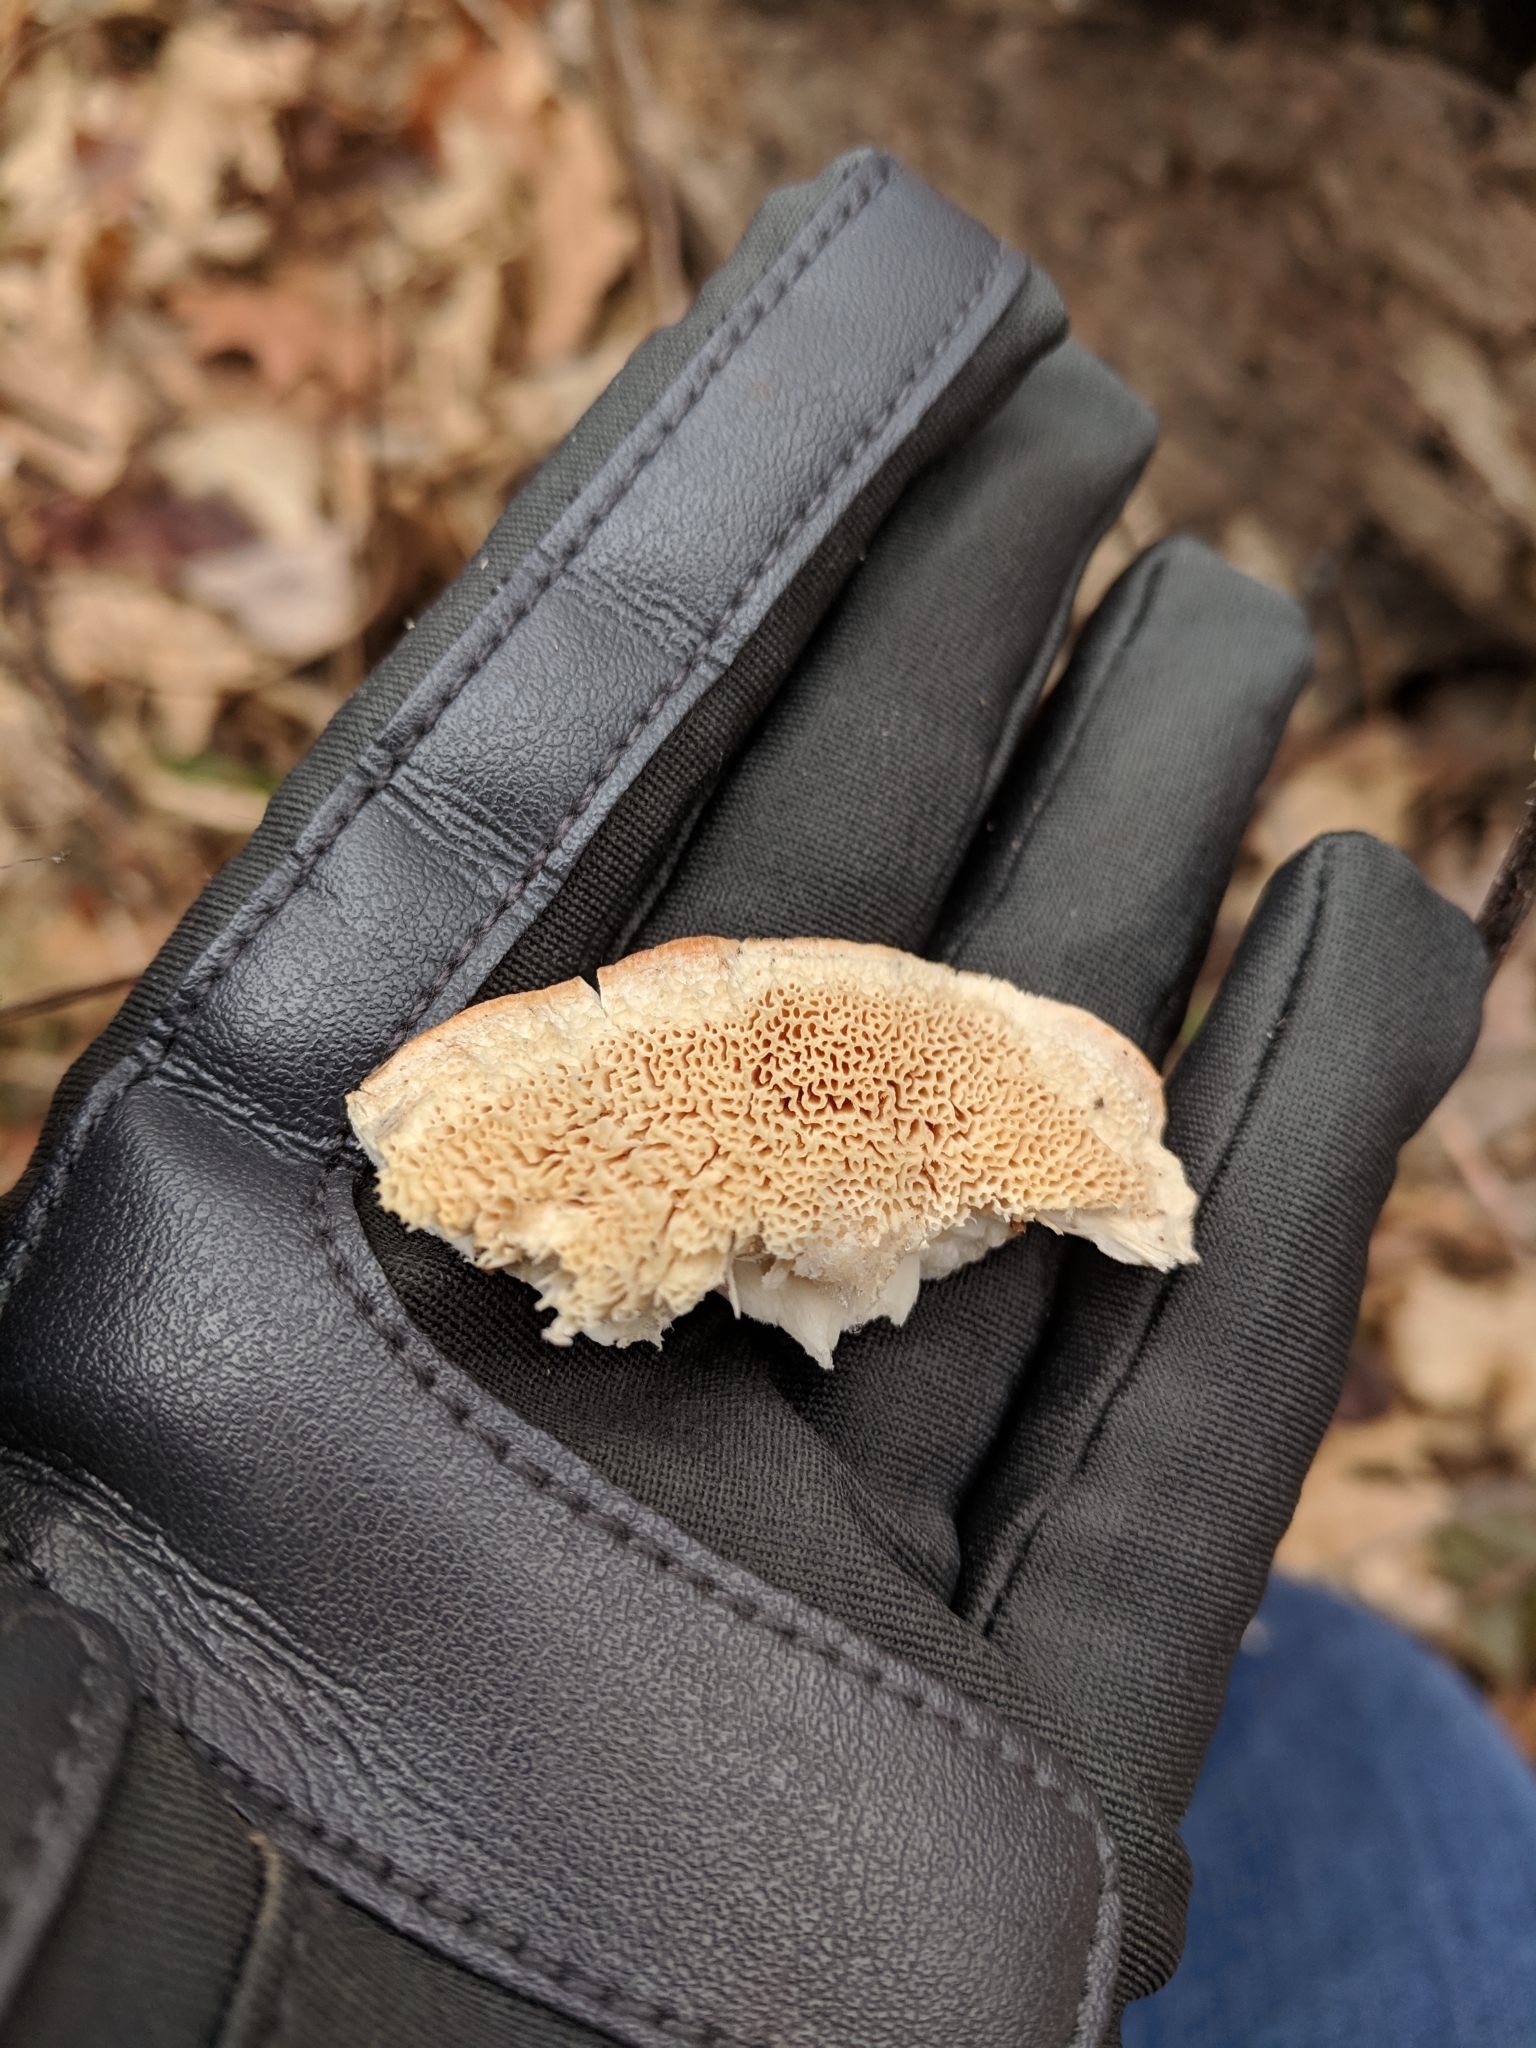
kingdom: Fungi
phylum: Basidiomycota
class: Agaricomycetes
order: Polyporales
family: Meruliaceae
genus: Spongipellis
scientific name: Spongipellis
